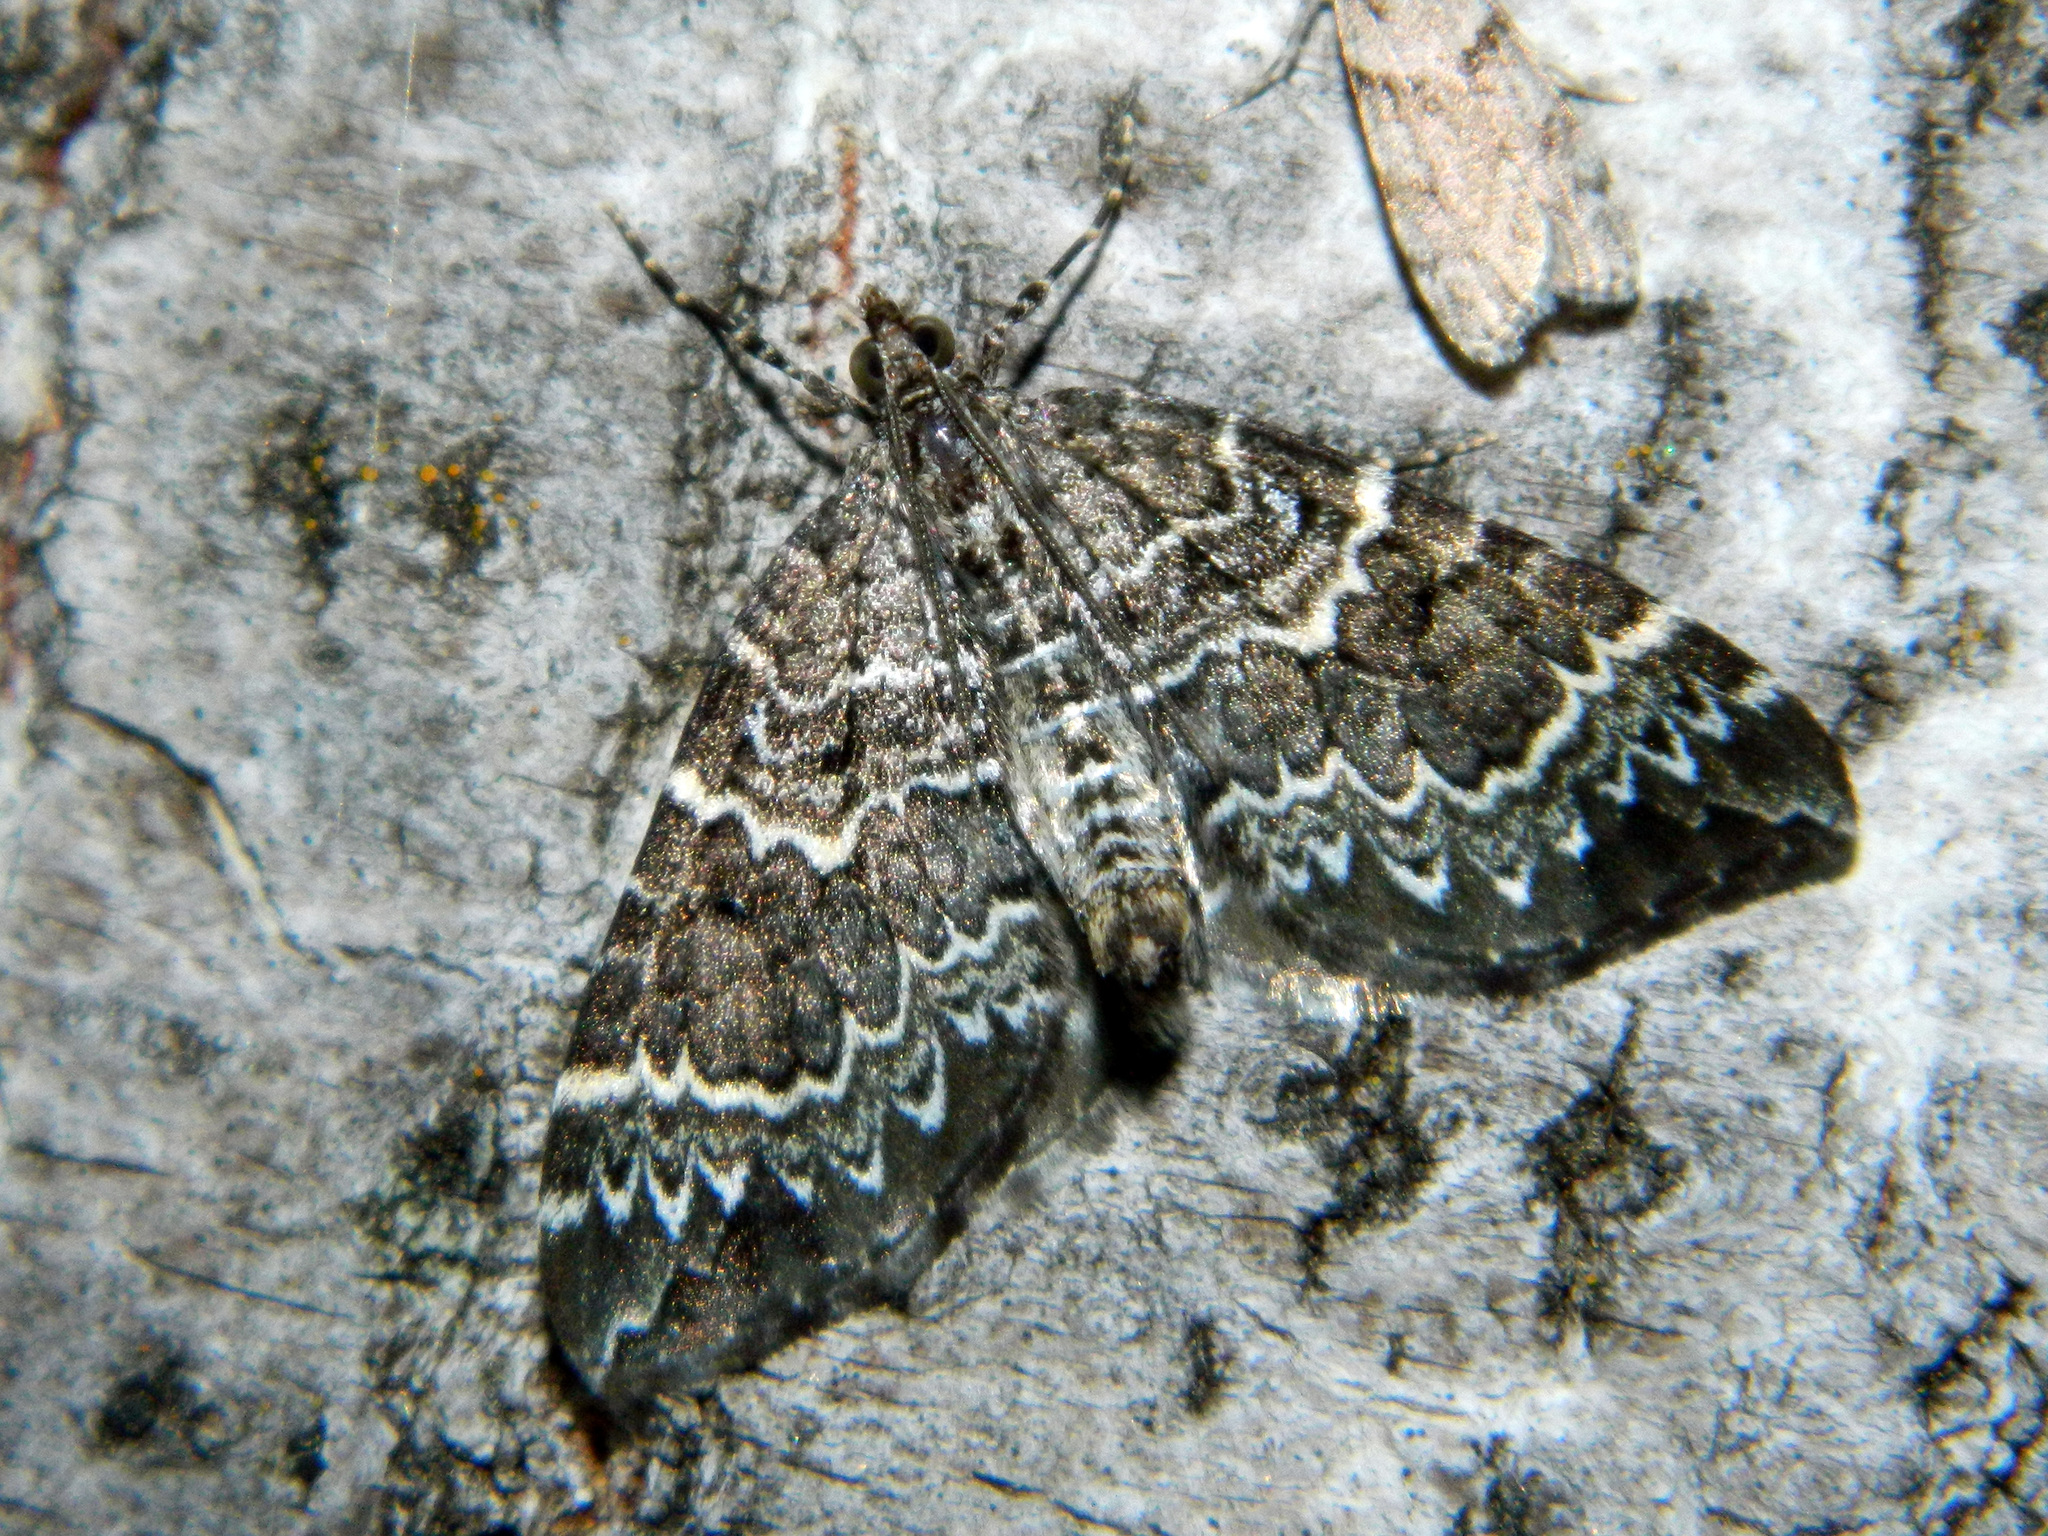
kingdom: Animalia
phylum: Arthropoda
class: Insecta
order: Lepidoptera
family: Geometridae
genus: Eulithis
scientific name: Eulithis explanata
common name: White eulithis
